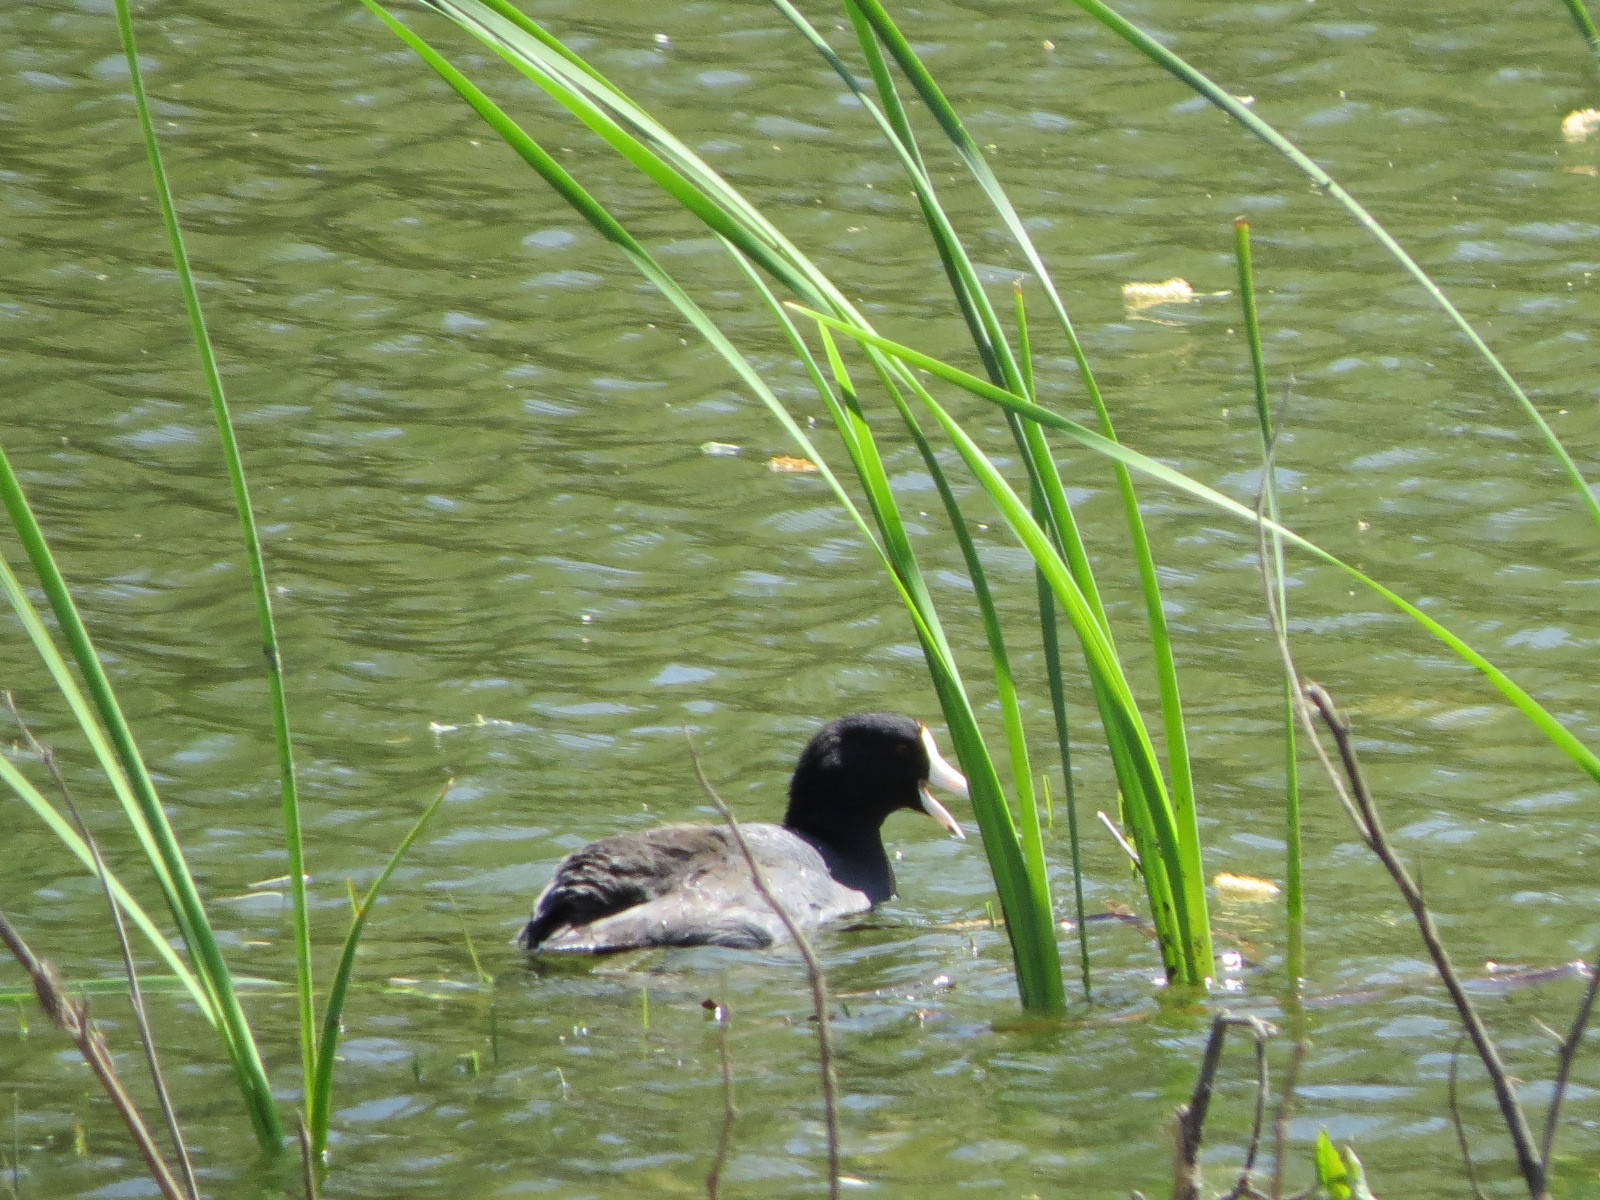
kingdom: Animalia
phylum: Chordata
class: Aves
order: Gruiformes
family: Rallidae
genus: Fulica
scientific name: Fulica americana
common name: American coot
